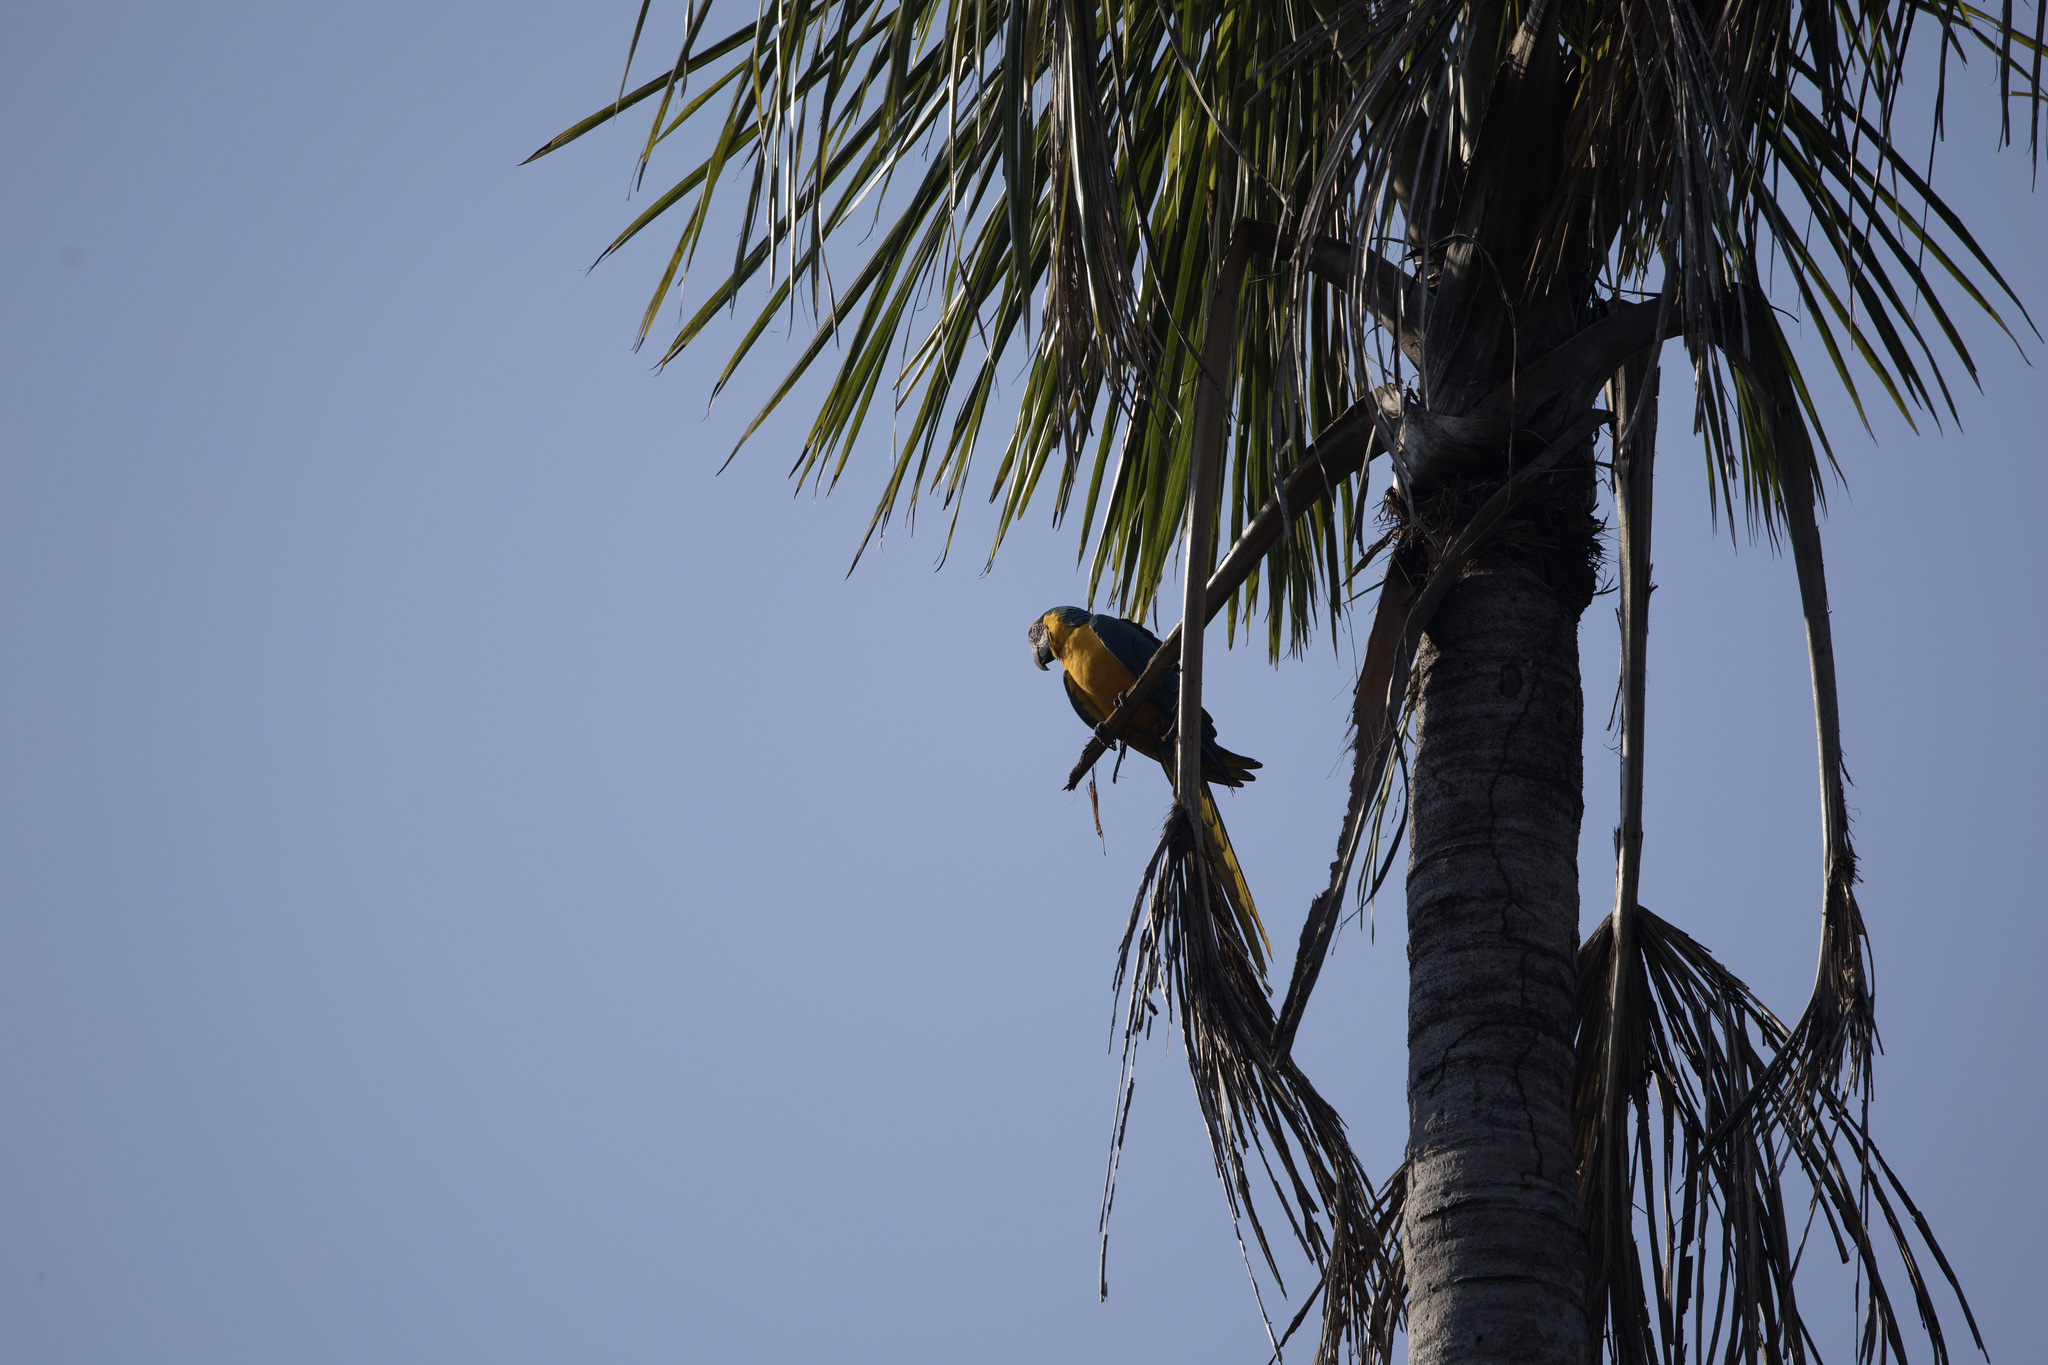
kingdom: Animalia
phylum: Chordata
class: Aves
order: Psittaciformes
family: Psittacidae
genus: Ara
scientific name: Ara ararauna
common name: Blue-and-yellow macaw
